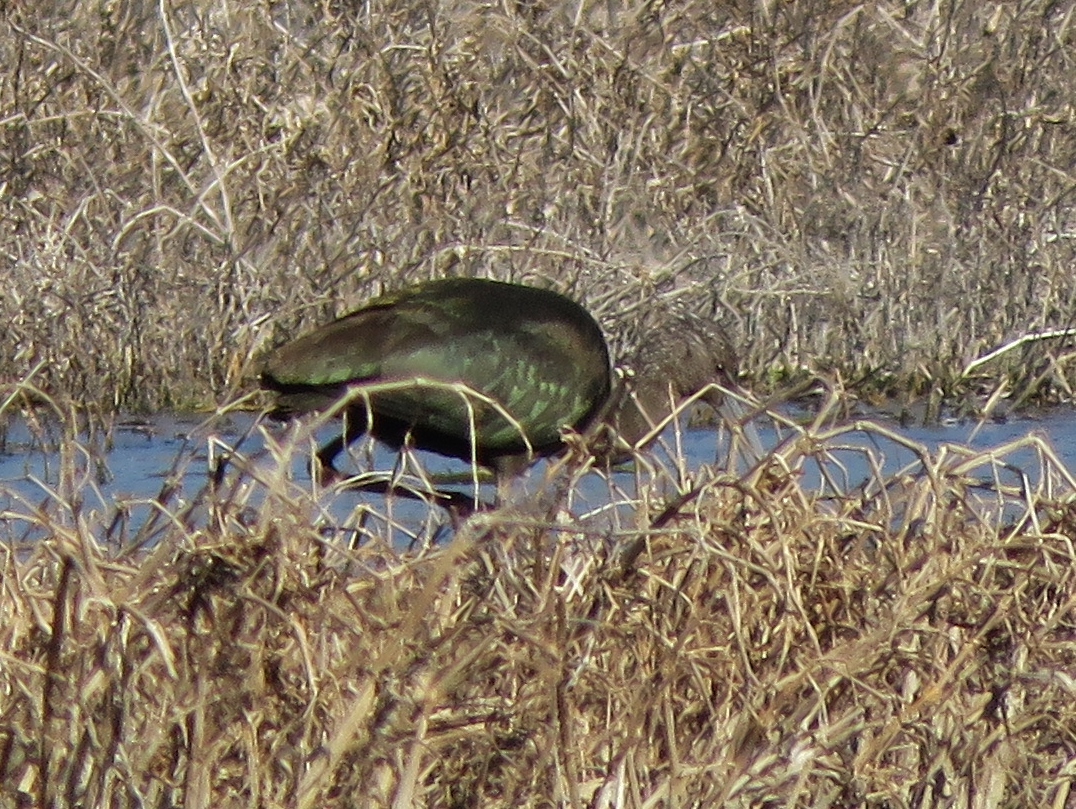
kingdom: Animalia
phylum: Chordata
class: Aves
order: Pelecaniformes
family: Threskiornithidae
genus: Plegadis
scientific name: Plegadis chihi
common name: White-faced ibis
